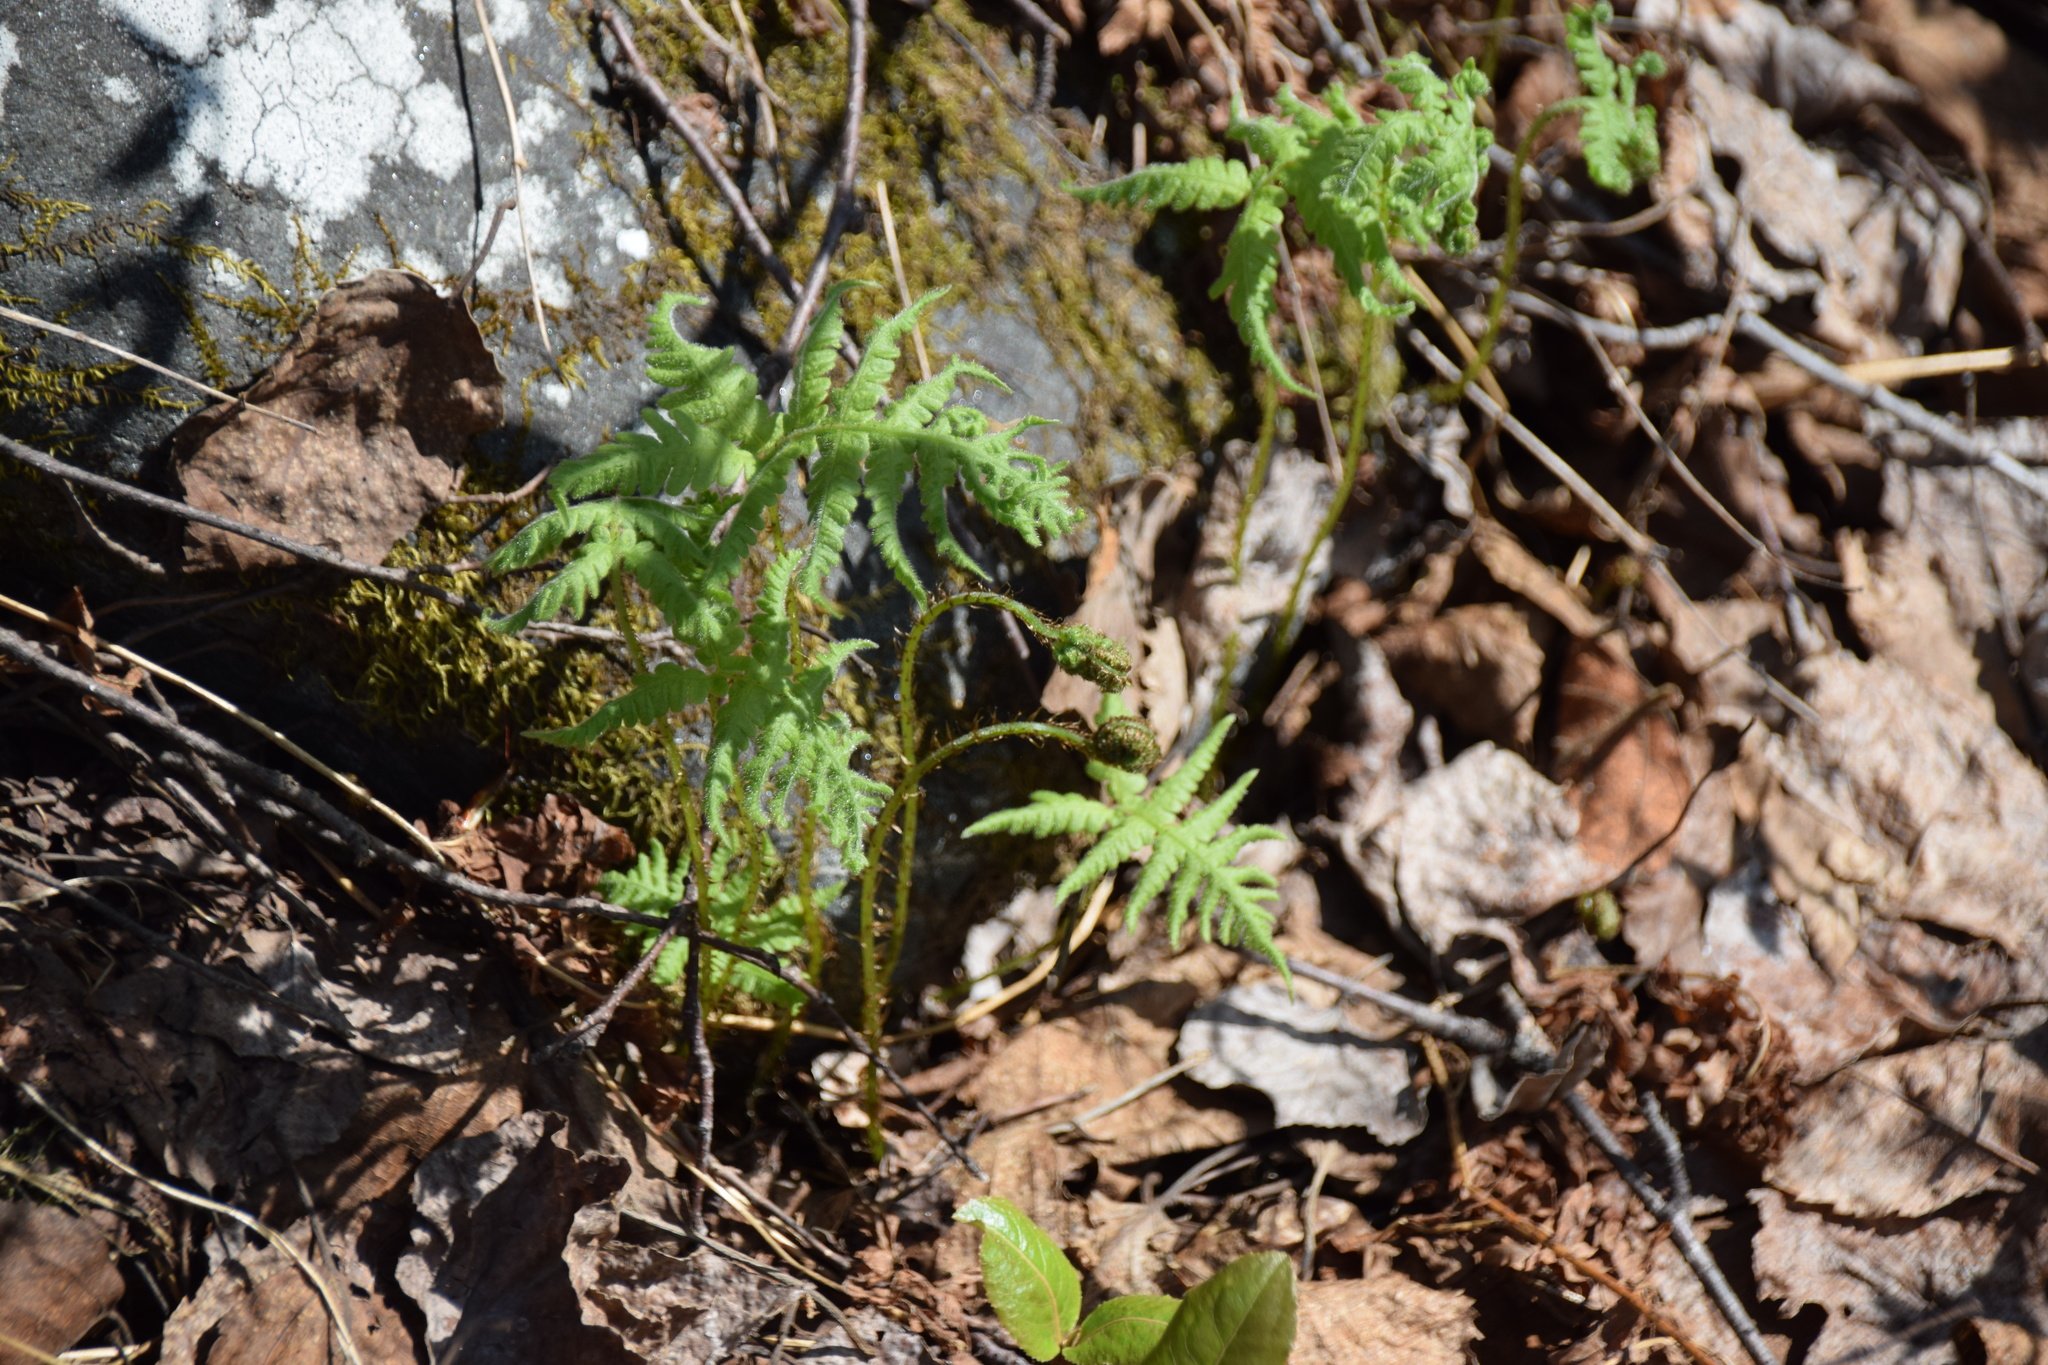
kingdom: Plantae
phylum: Tracheophyta
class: Polypodiopsida
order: Polypodiales
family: Thelypteridaceae
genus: Phegopteris
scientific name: Phegopteris connectilis
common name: Beech fern
